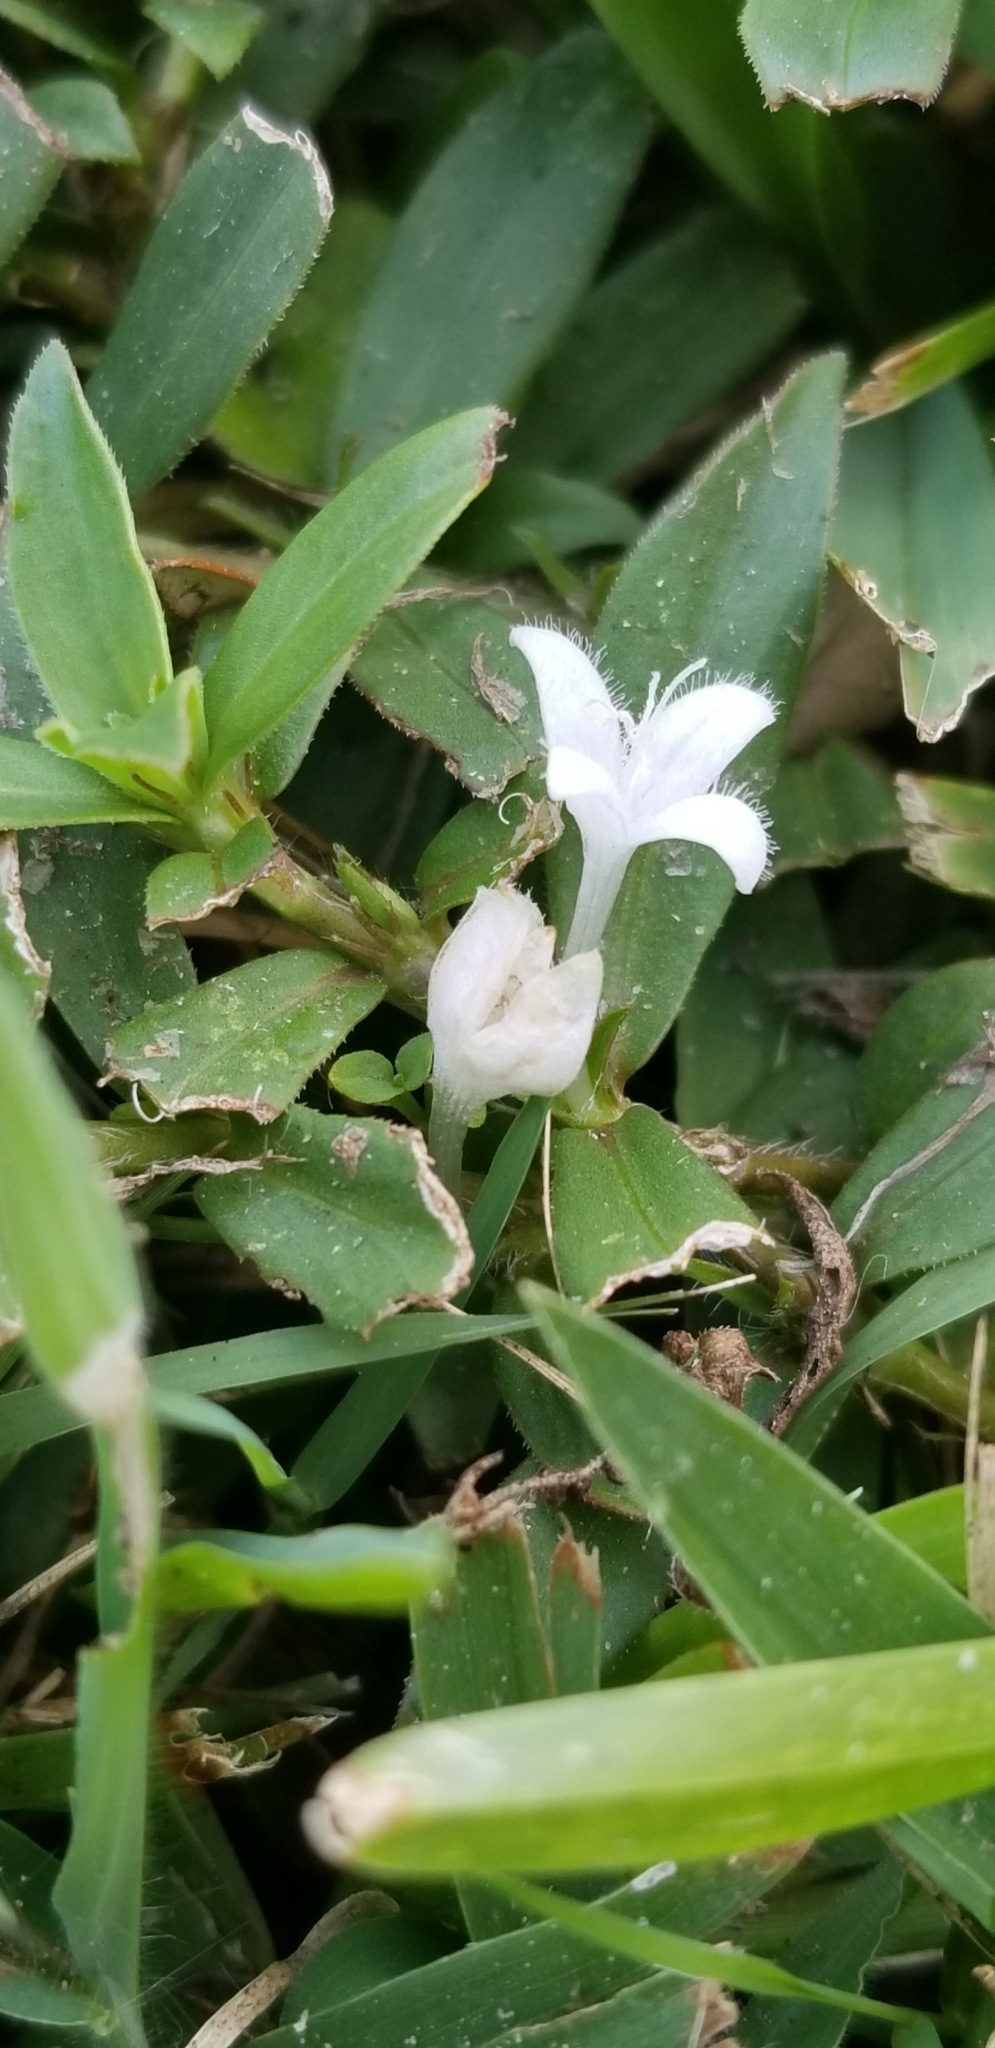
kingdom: Plantae
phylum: Tracheophyta
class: Magnoliopsida
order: Gentianales
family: Rubiaceae
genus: Diodia
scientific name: Diodia virginiana
